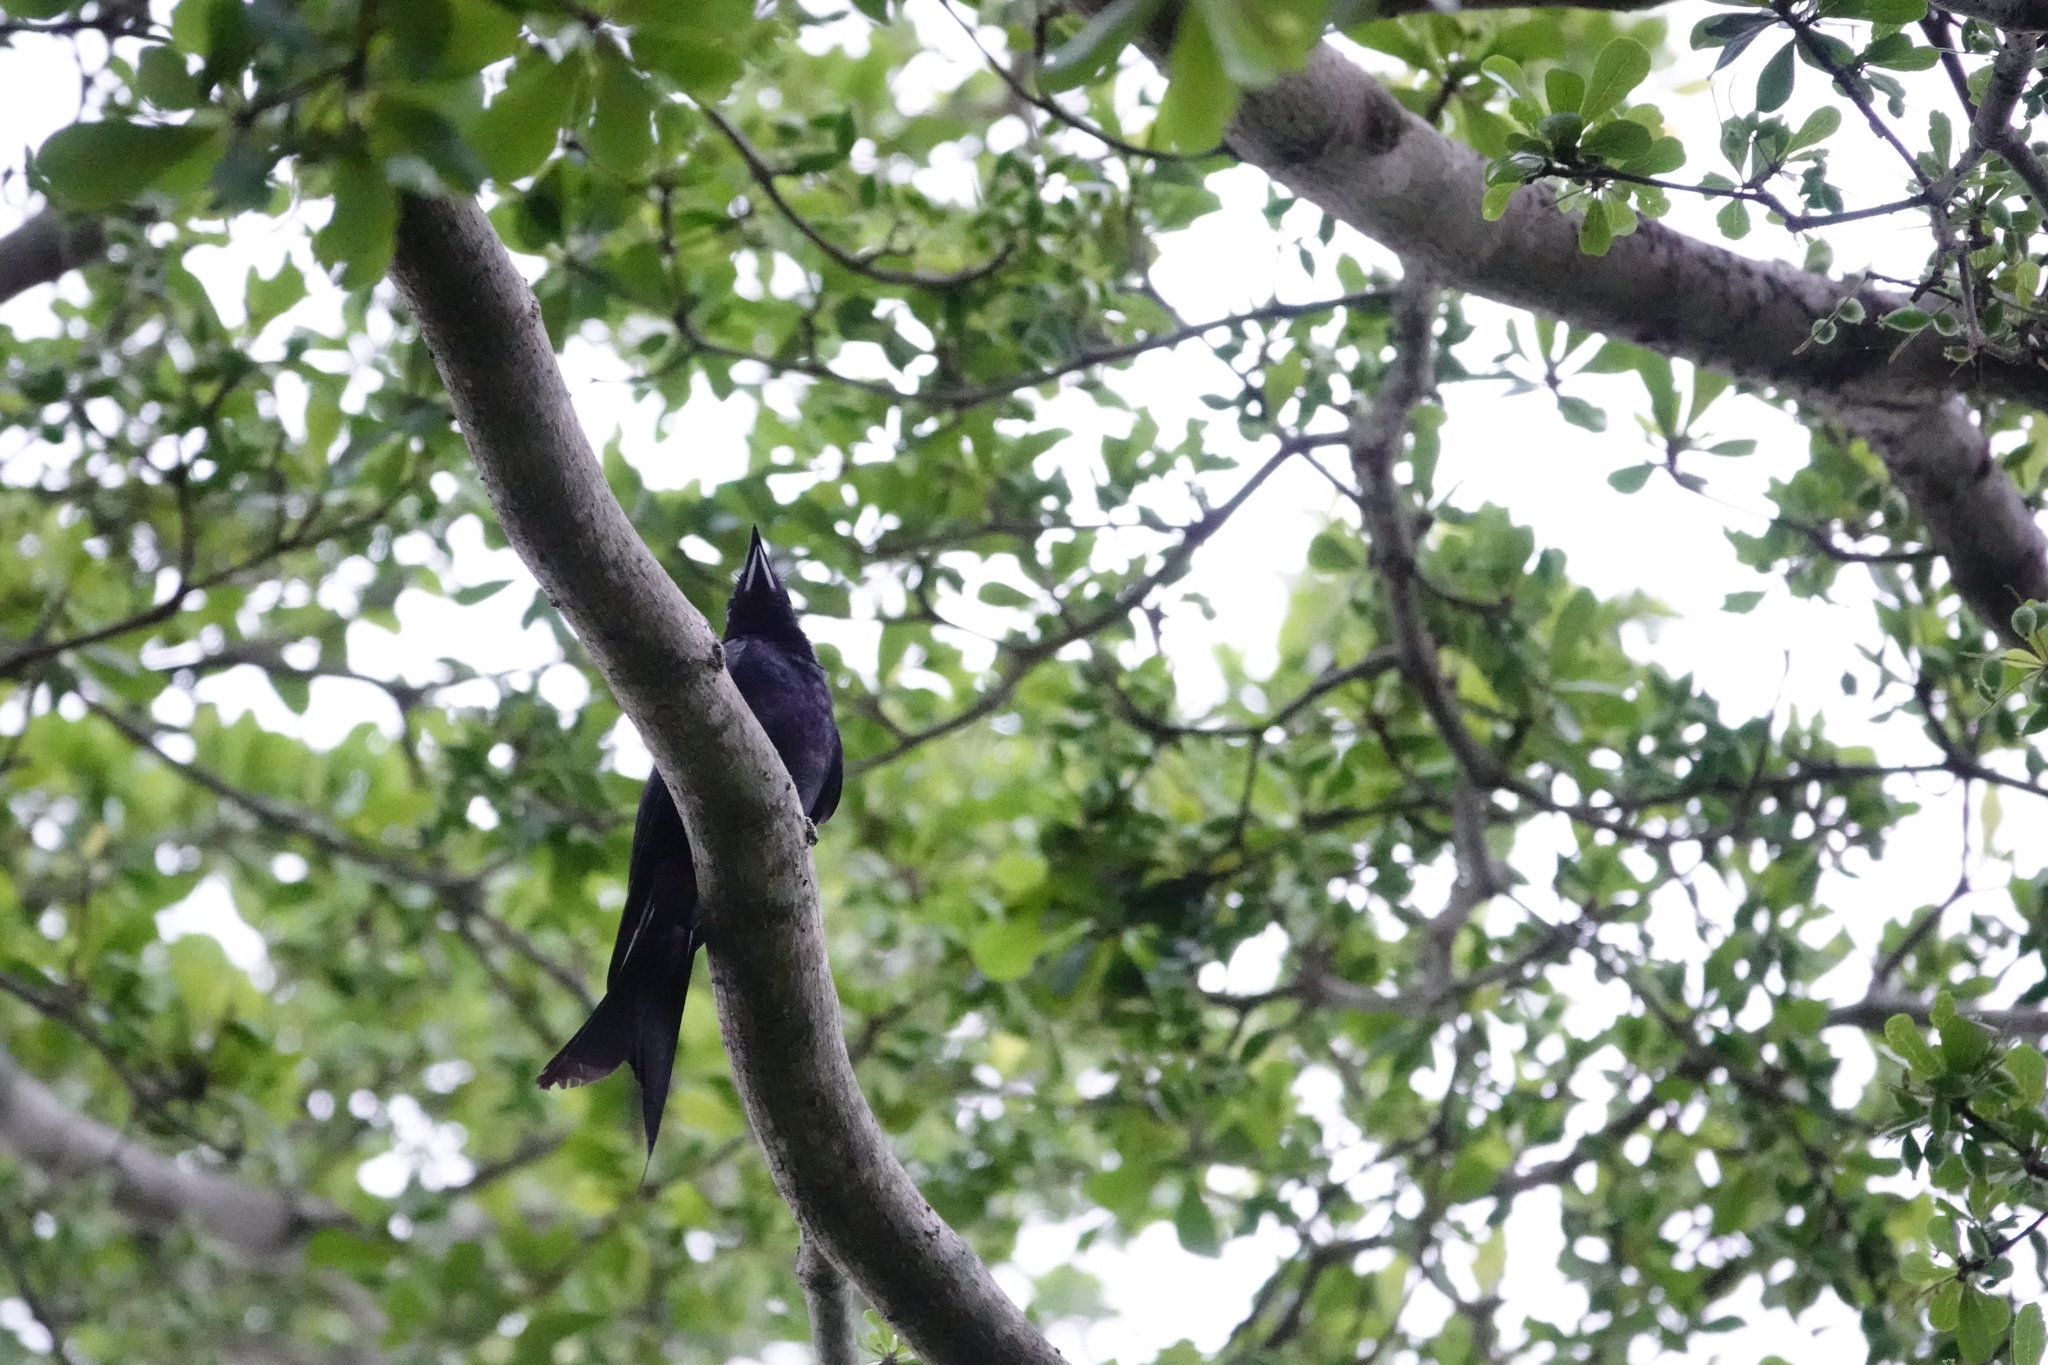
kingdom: Animalia
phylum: Chordata
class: Aves
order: Passeriformes
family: Dicruridae
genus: Dicrurus
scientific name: Dicrurus macrocercus
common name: Black drongo
